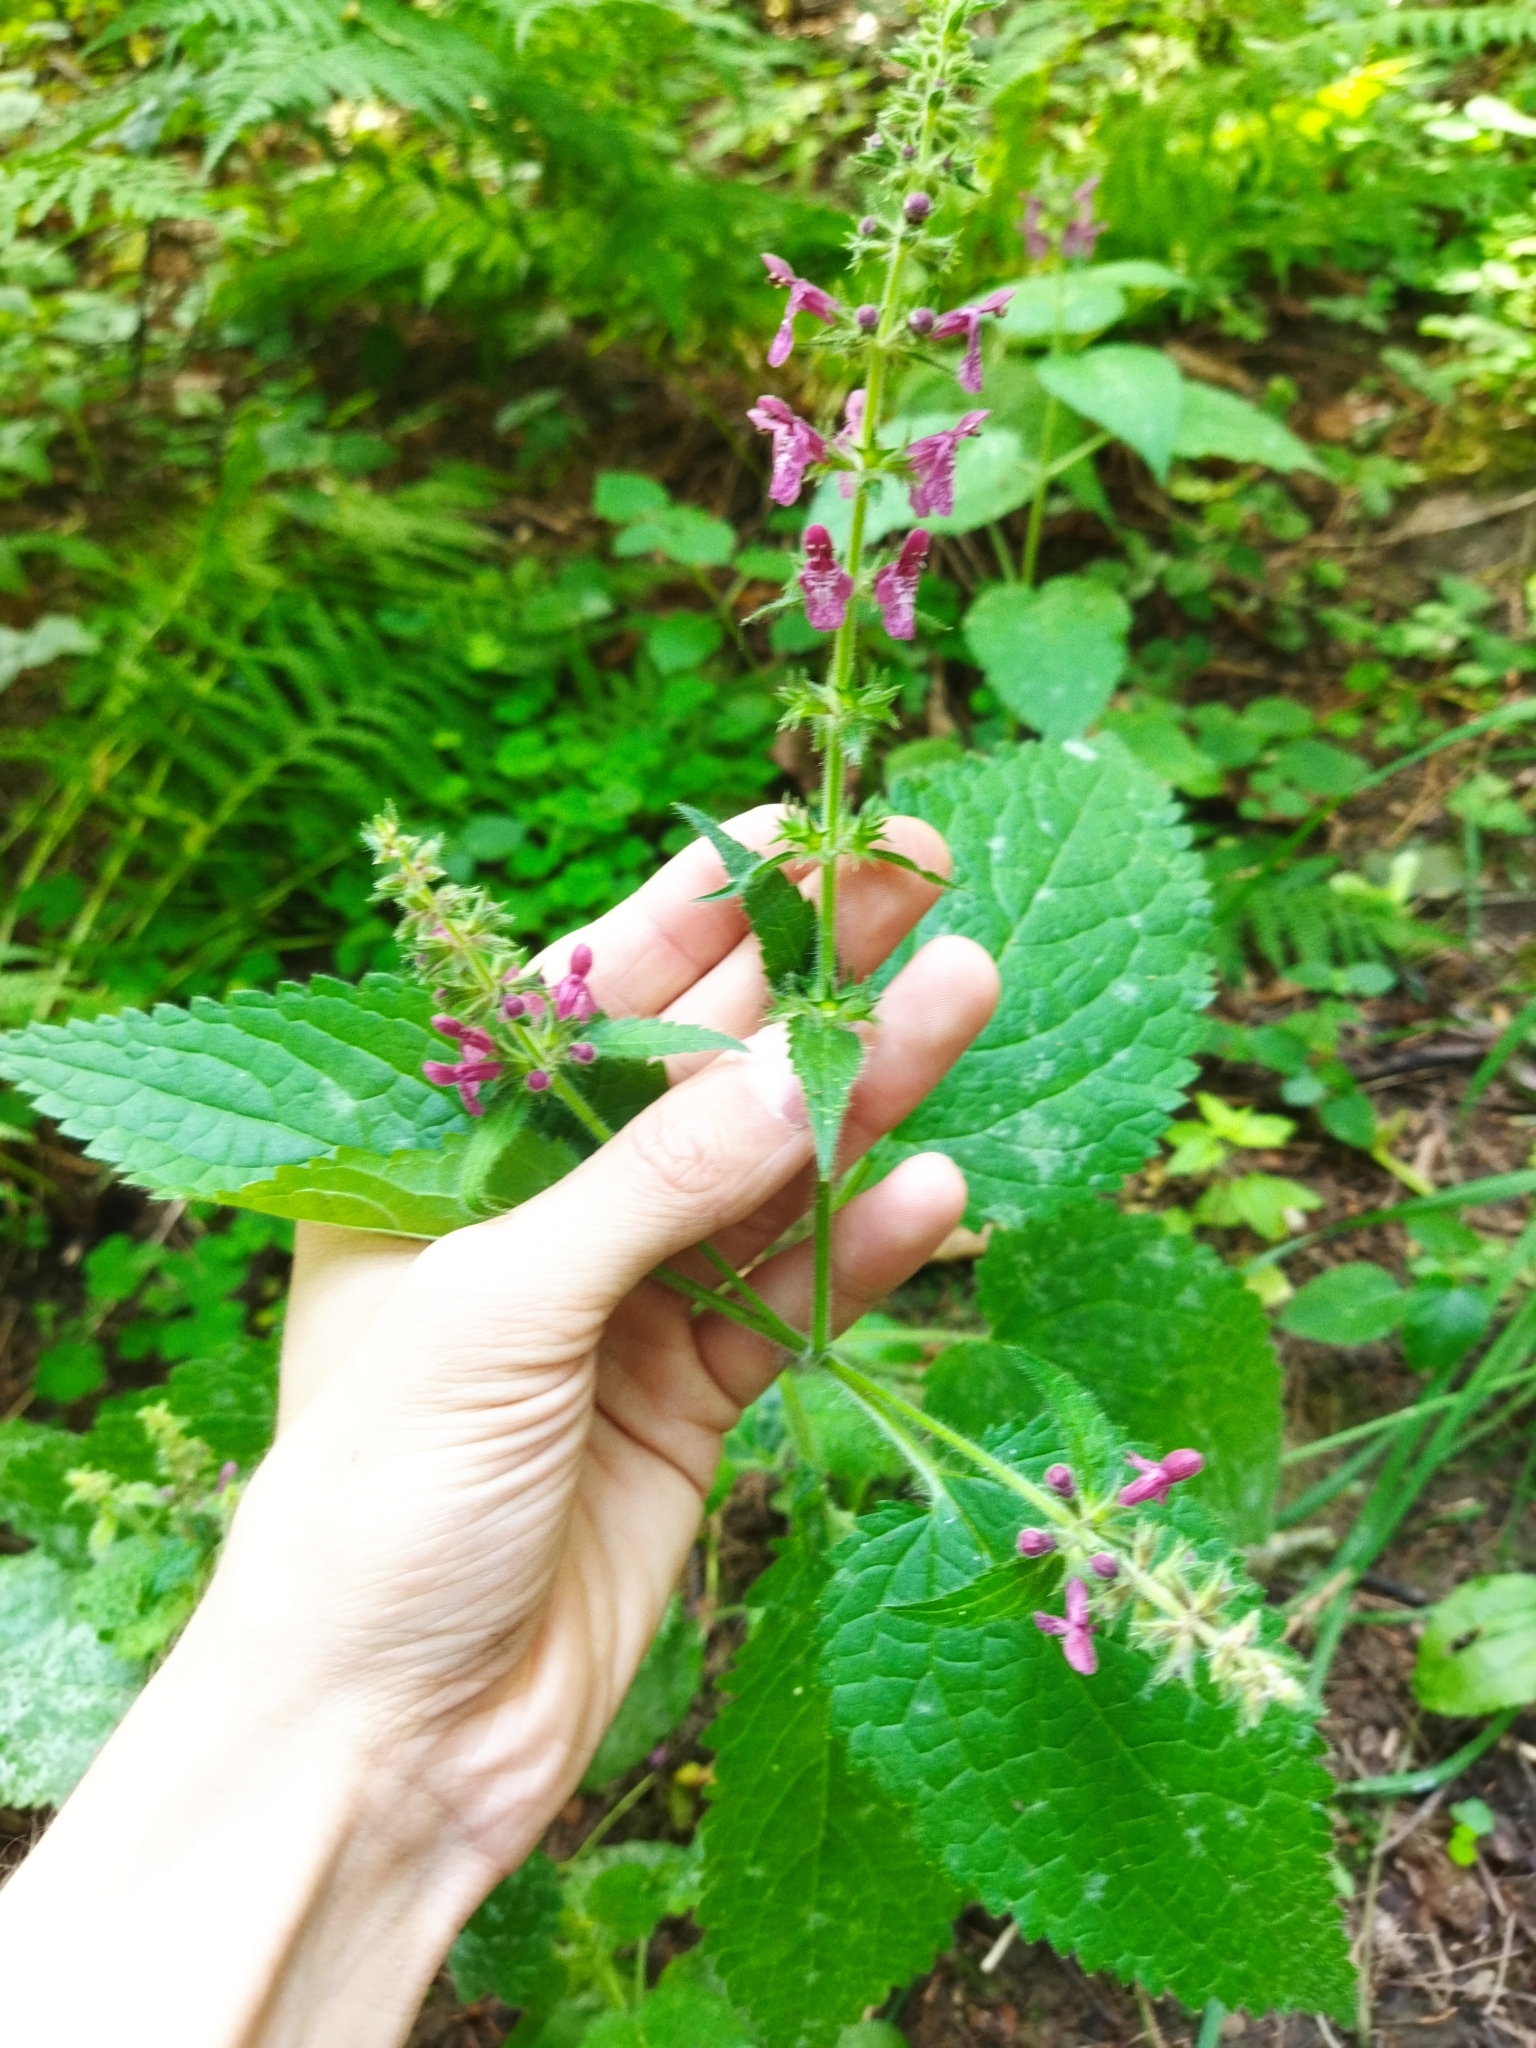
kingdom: Plantae
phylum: Tracheophyta
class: Magnoliopsida
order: Lamiales
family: Lamiaceae
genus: Stachys
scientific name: Stachys sylvatica
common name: Hedge woundwort
